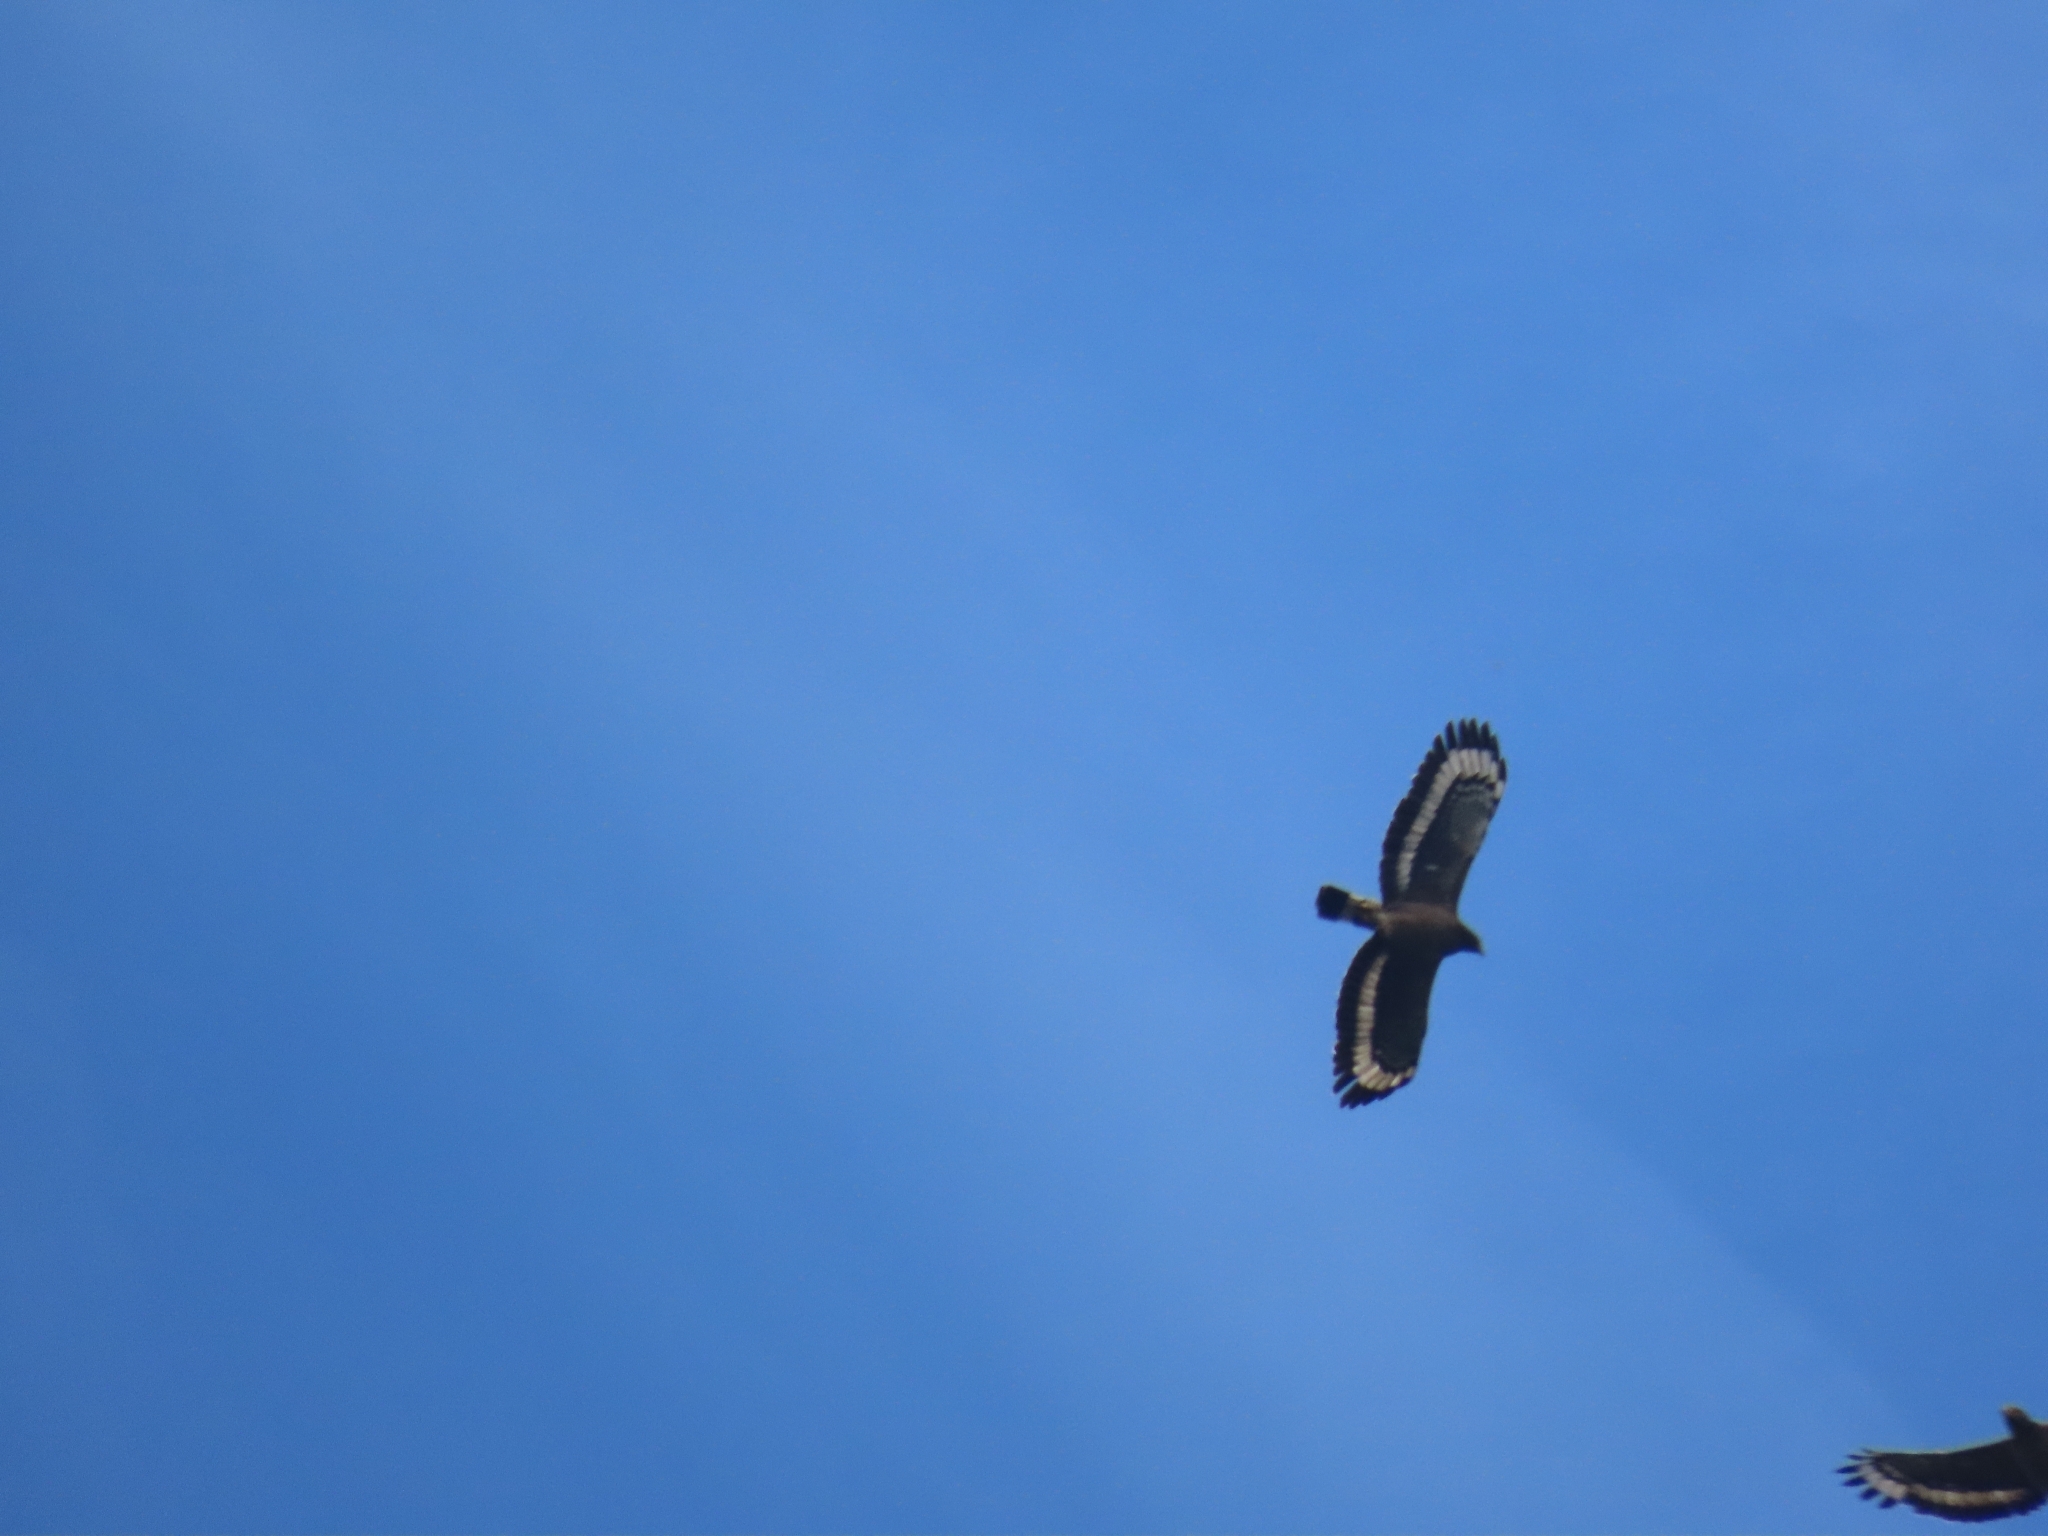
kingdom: Animalia
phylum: Chordata
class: Aves
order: Accipitriformes
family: Accipitridae
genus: Spilornis
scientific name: Spilornis cheela
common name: Crested serpent eagle
